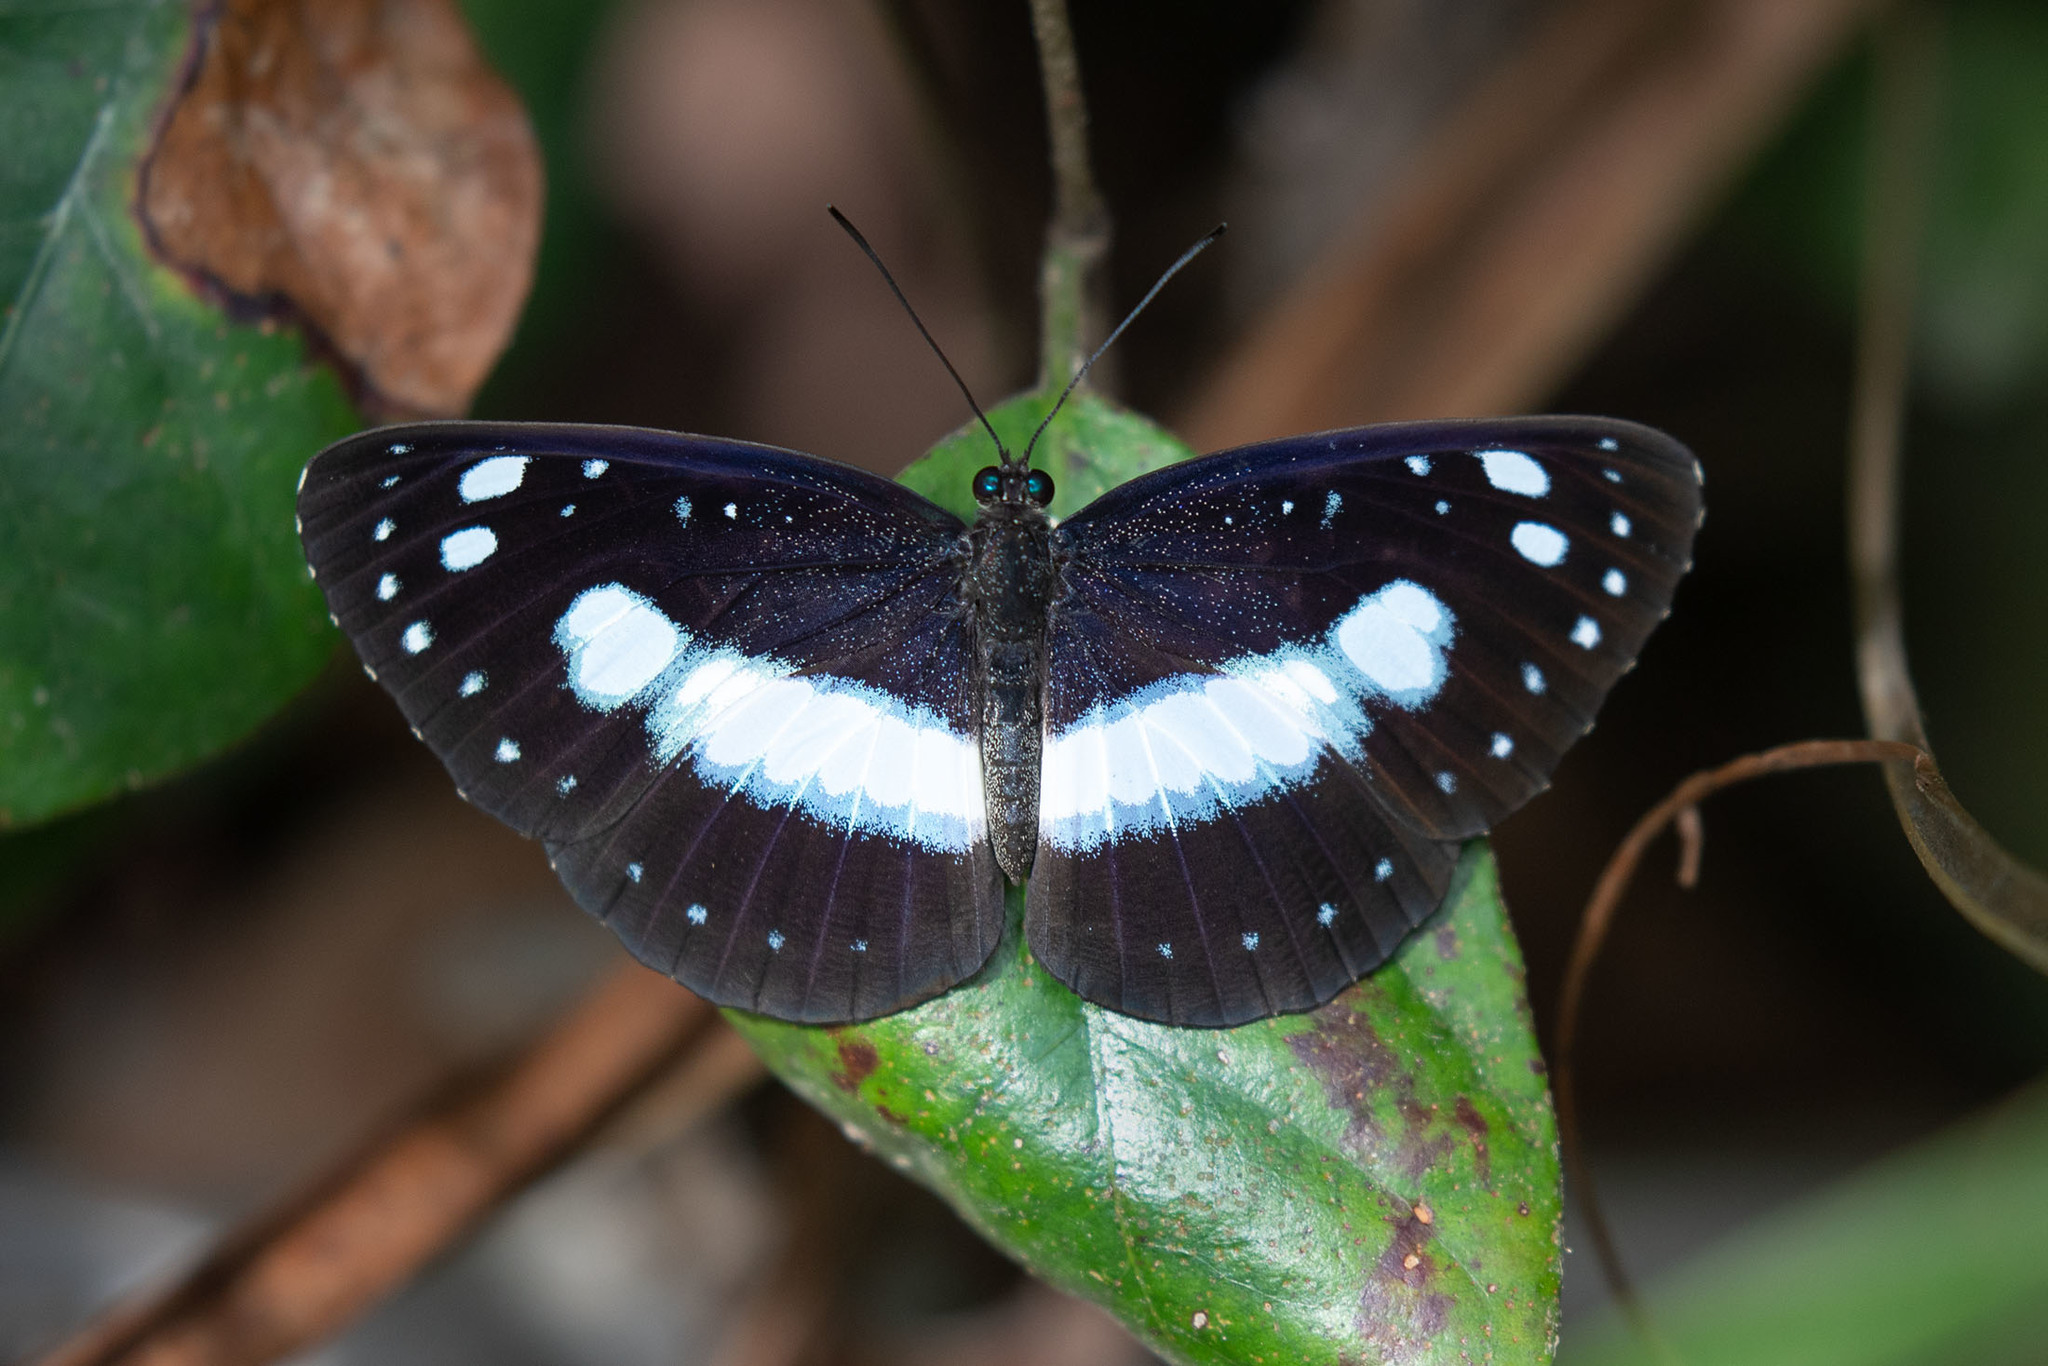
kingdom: Animalia
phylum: Arthropoda
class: Insecta
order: Lepidoptera
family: Nymphalidae
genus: Pantoporia
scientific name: Pantoporia venilia
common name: Cape york aeroplane
